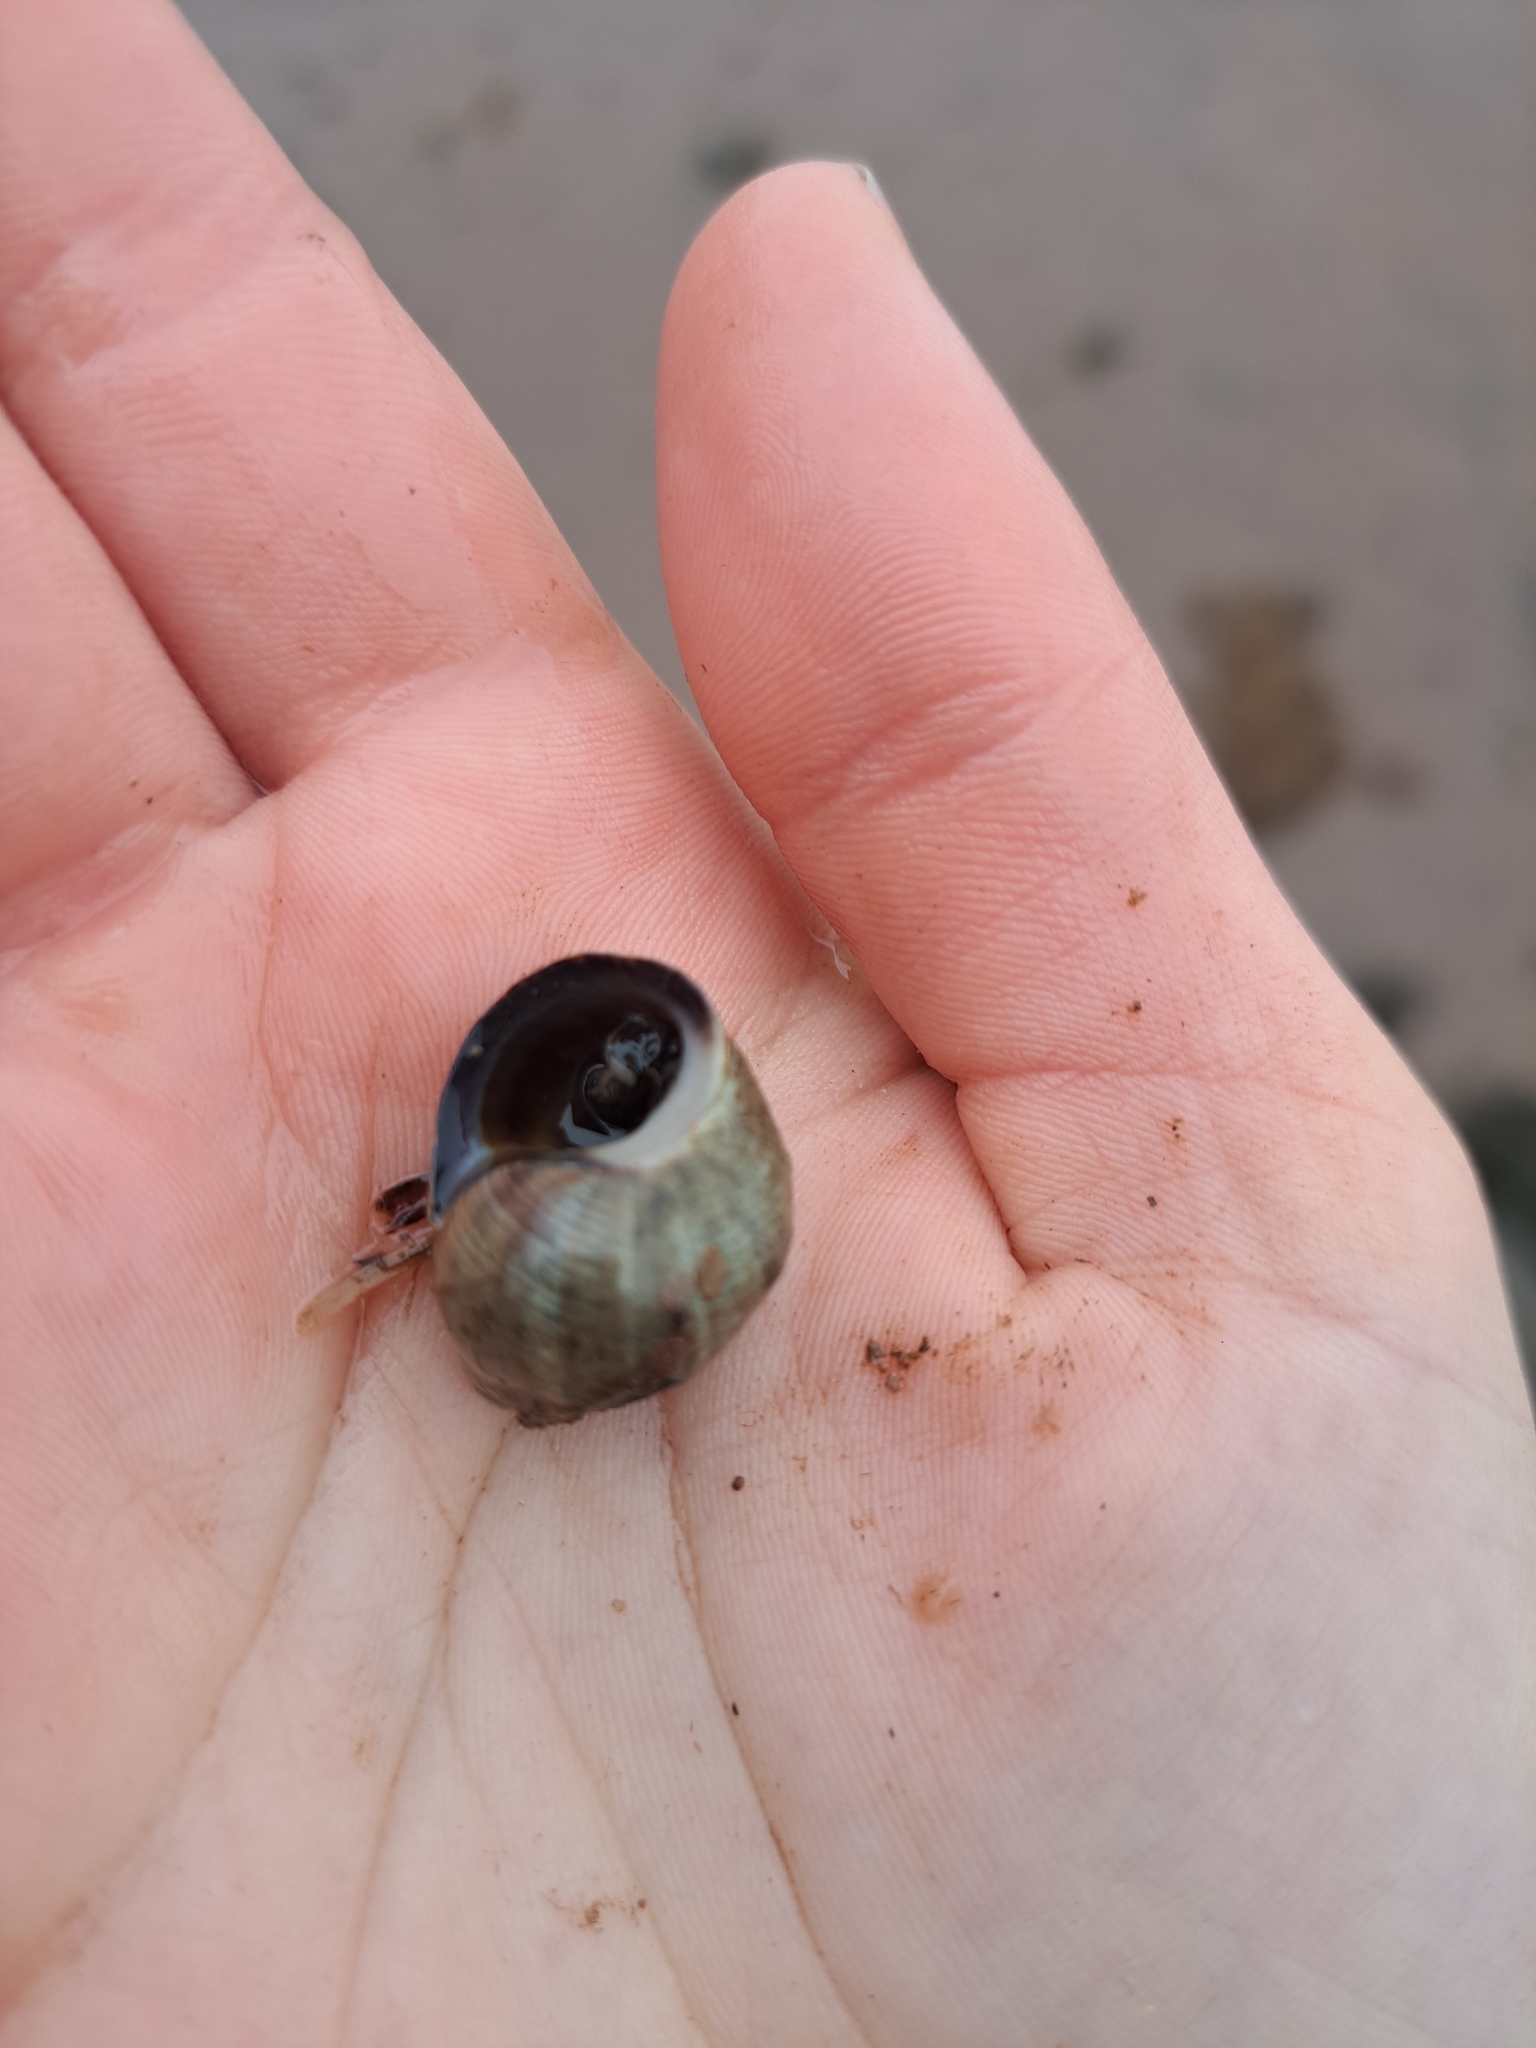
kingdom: Animalia
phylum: Mollusca
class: Gastropoda
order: Littorinimorpha
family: Littorinidae
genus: Littorina
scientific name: Littorina littorea
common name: Common periwinkle
